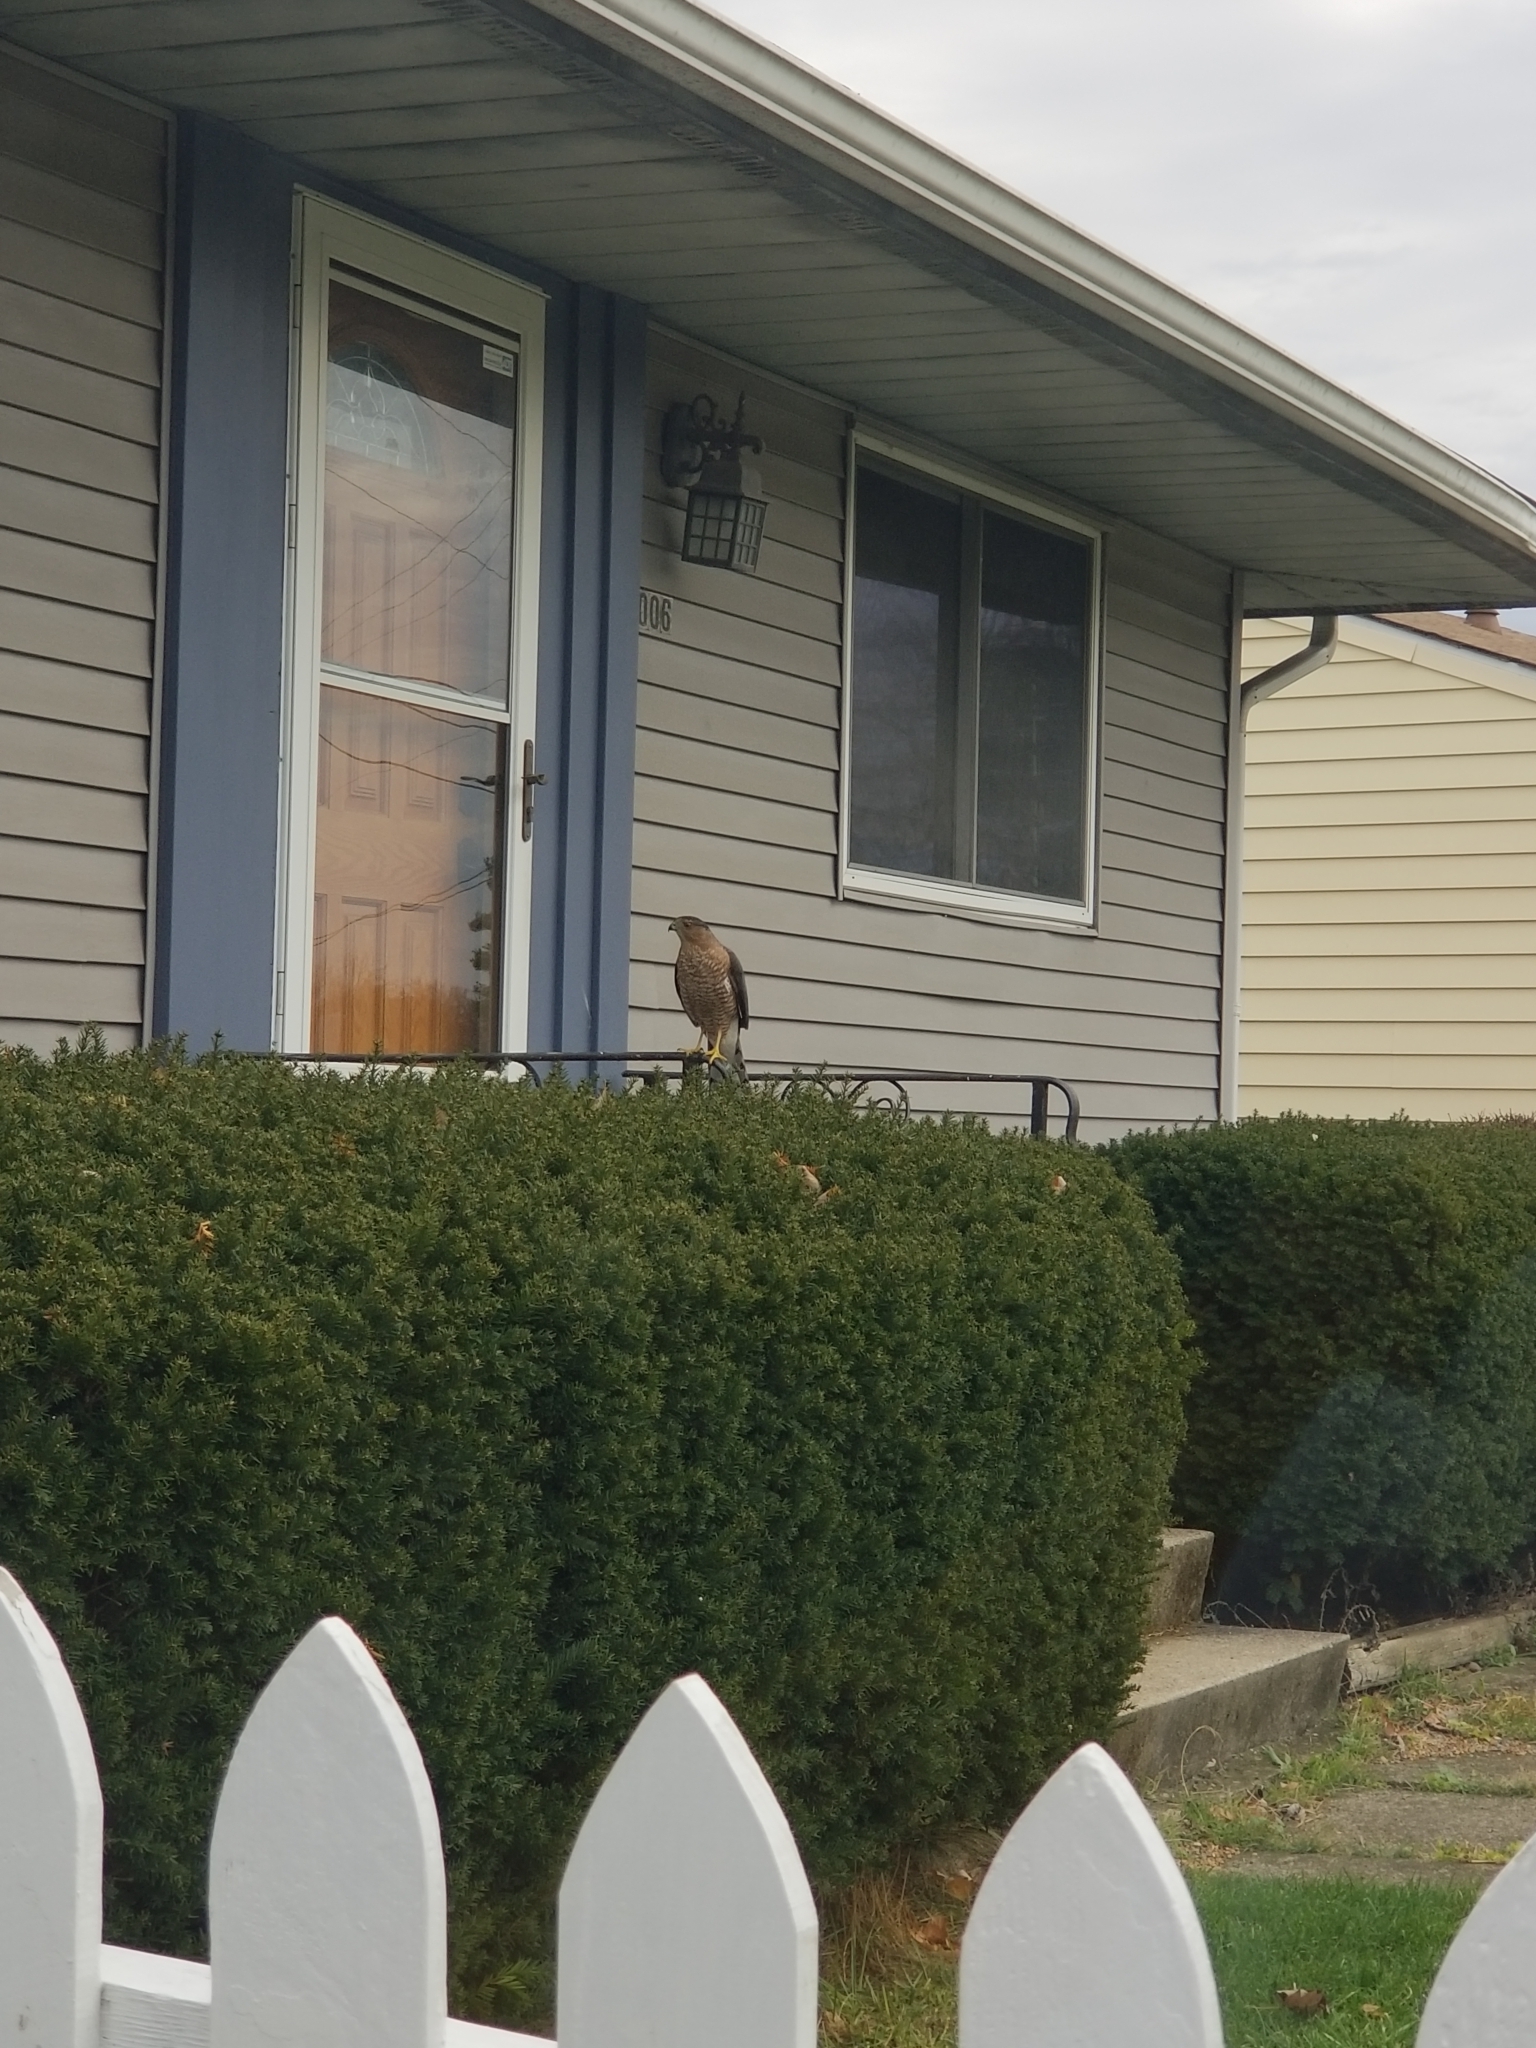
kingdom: Animalia
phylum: Chordata
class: Aves
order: Accipitriformes
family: Accipitridae
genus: Accipiter
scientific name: Accipiter cooperii
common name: Cooper's hawk
